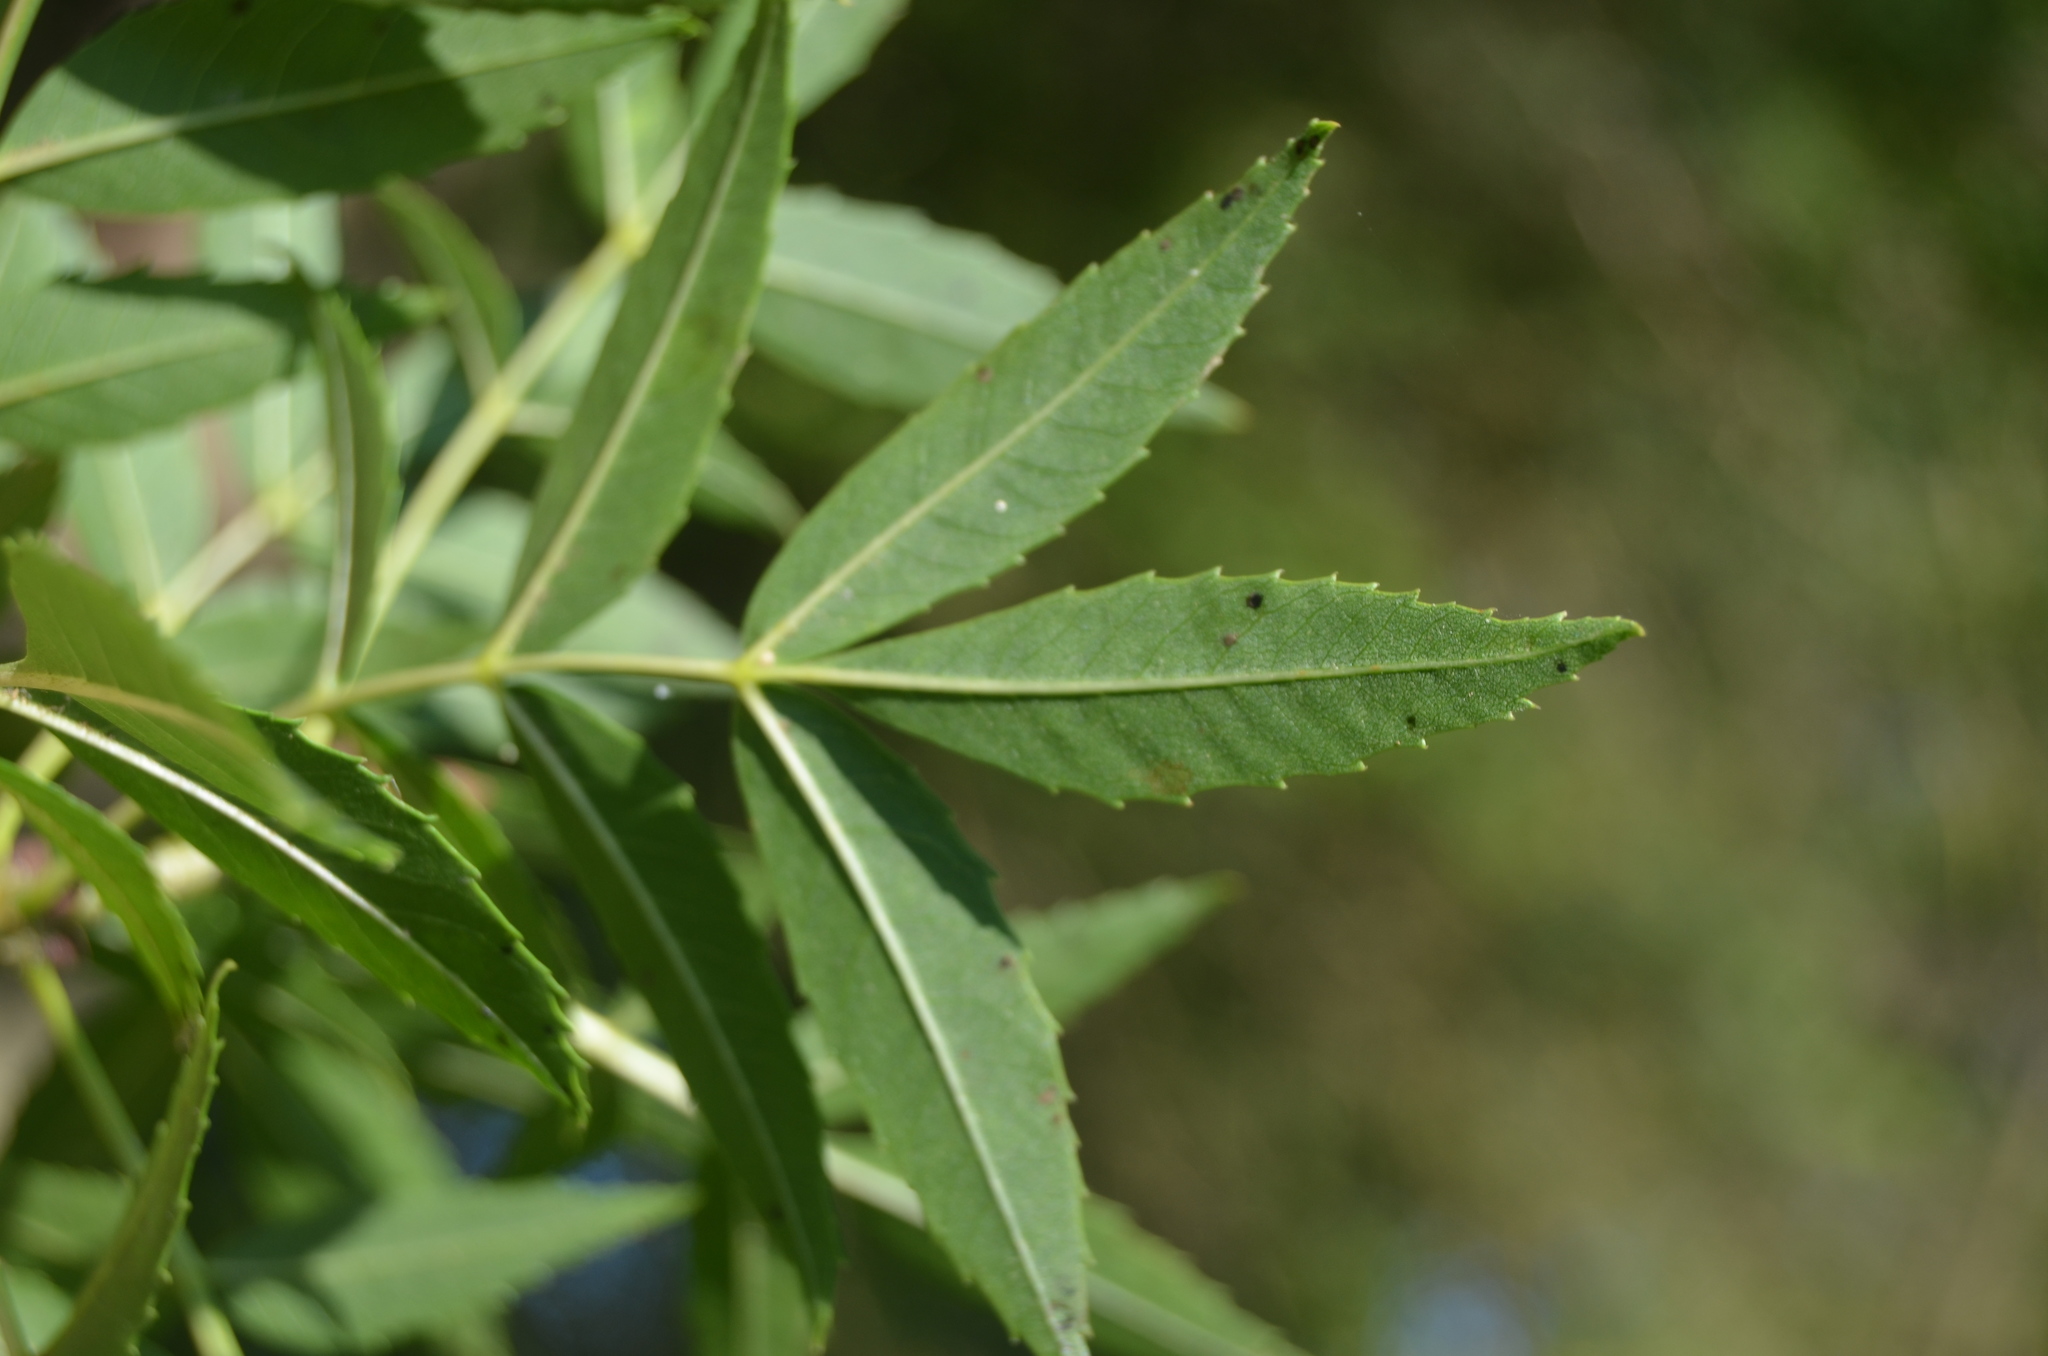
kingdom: Plantae
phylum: Tracheophyta
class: Magnoliopsida
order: Lamiales
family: Oleaceae
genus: Fraxinus
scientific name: Fraxinus angustifolia
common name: Narrow-leafed ash
